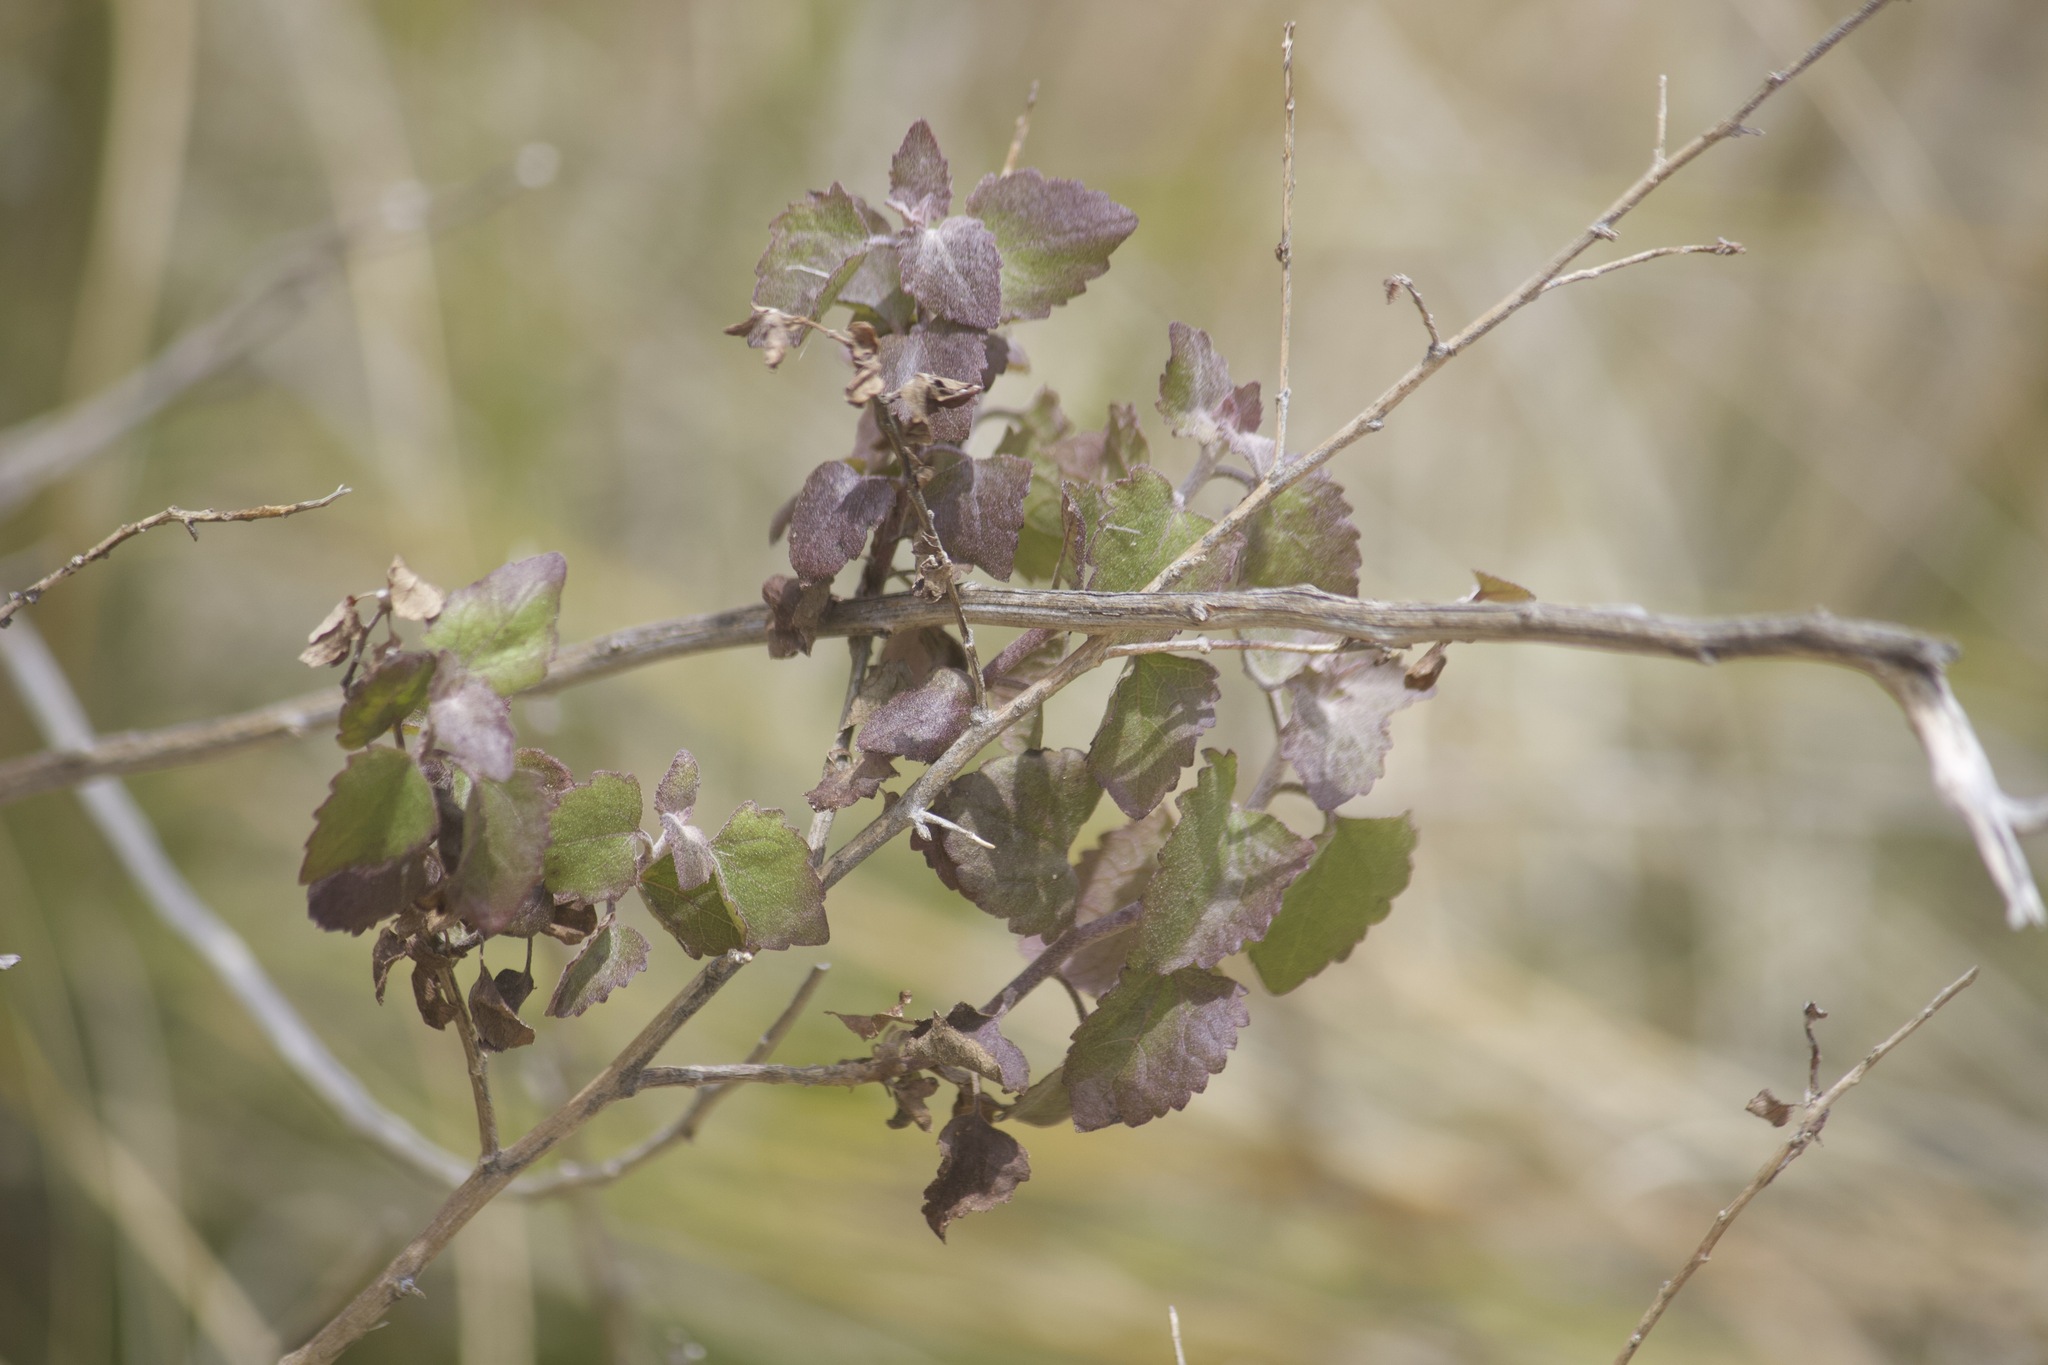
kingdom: Plantae
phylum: Tracheophyta
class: Magnoliopsida
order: Asterales
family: Asteraceae
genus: Brickellia
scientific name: Brickellia californica
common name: California brickellbush
